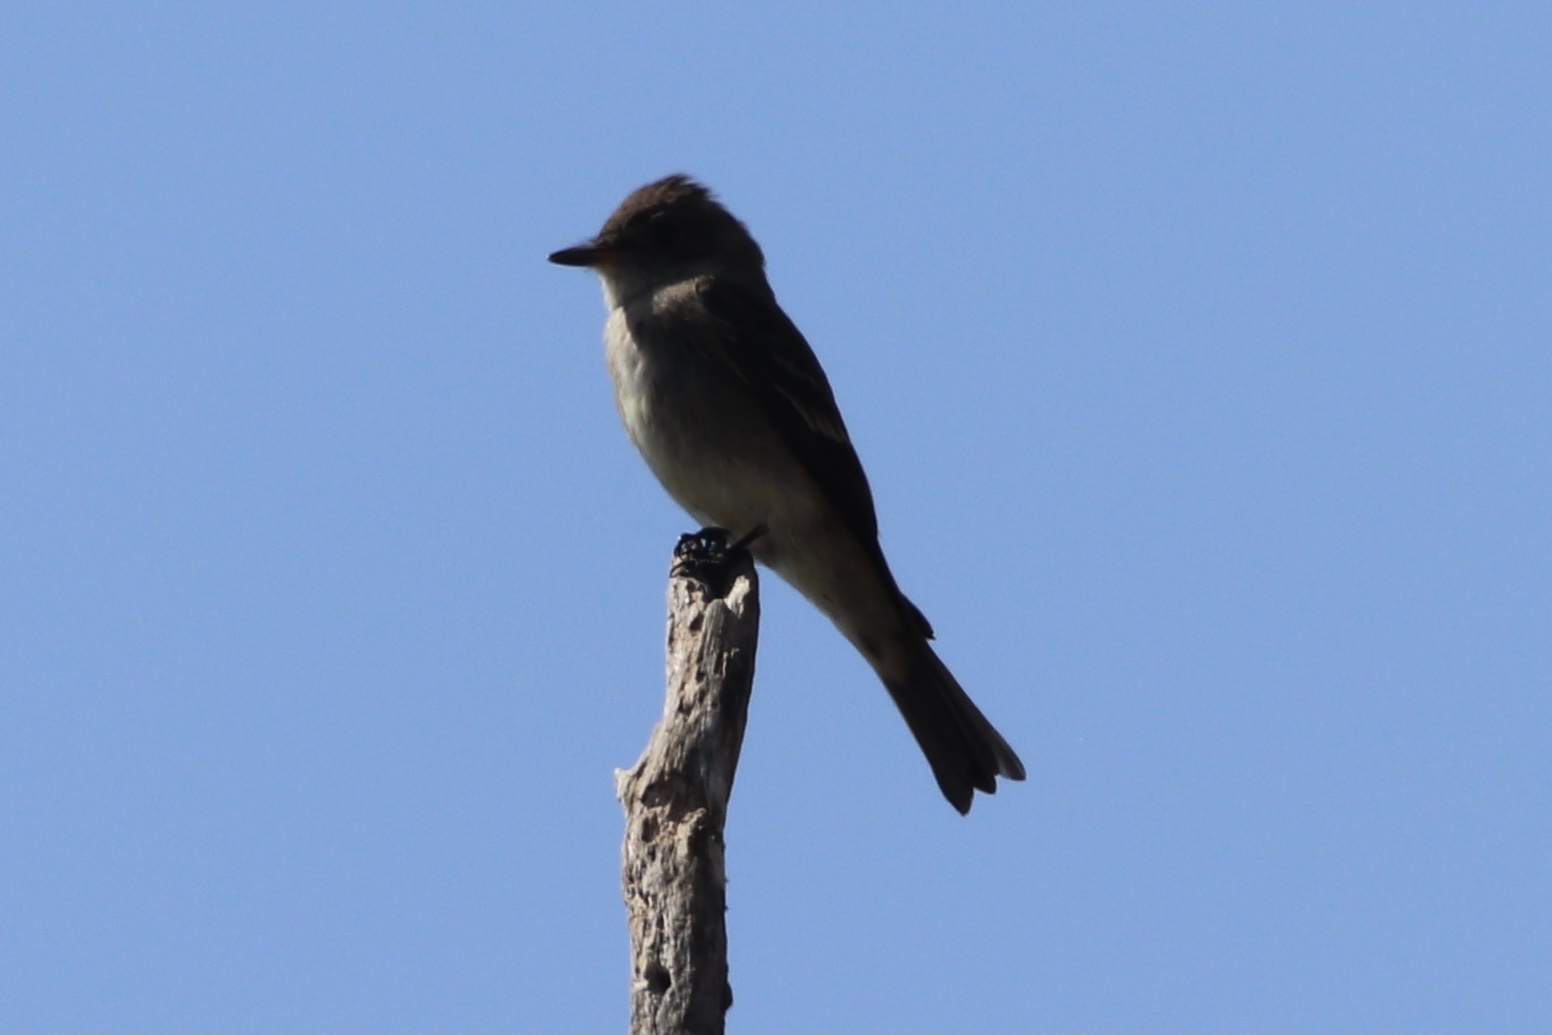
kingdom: Animalia
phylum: Chordata
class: Aves
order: Passeriformes
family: Tyrannidae
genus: Contopus
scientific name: Contopus sordidulus
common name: Western wood-pewee
